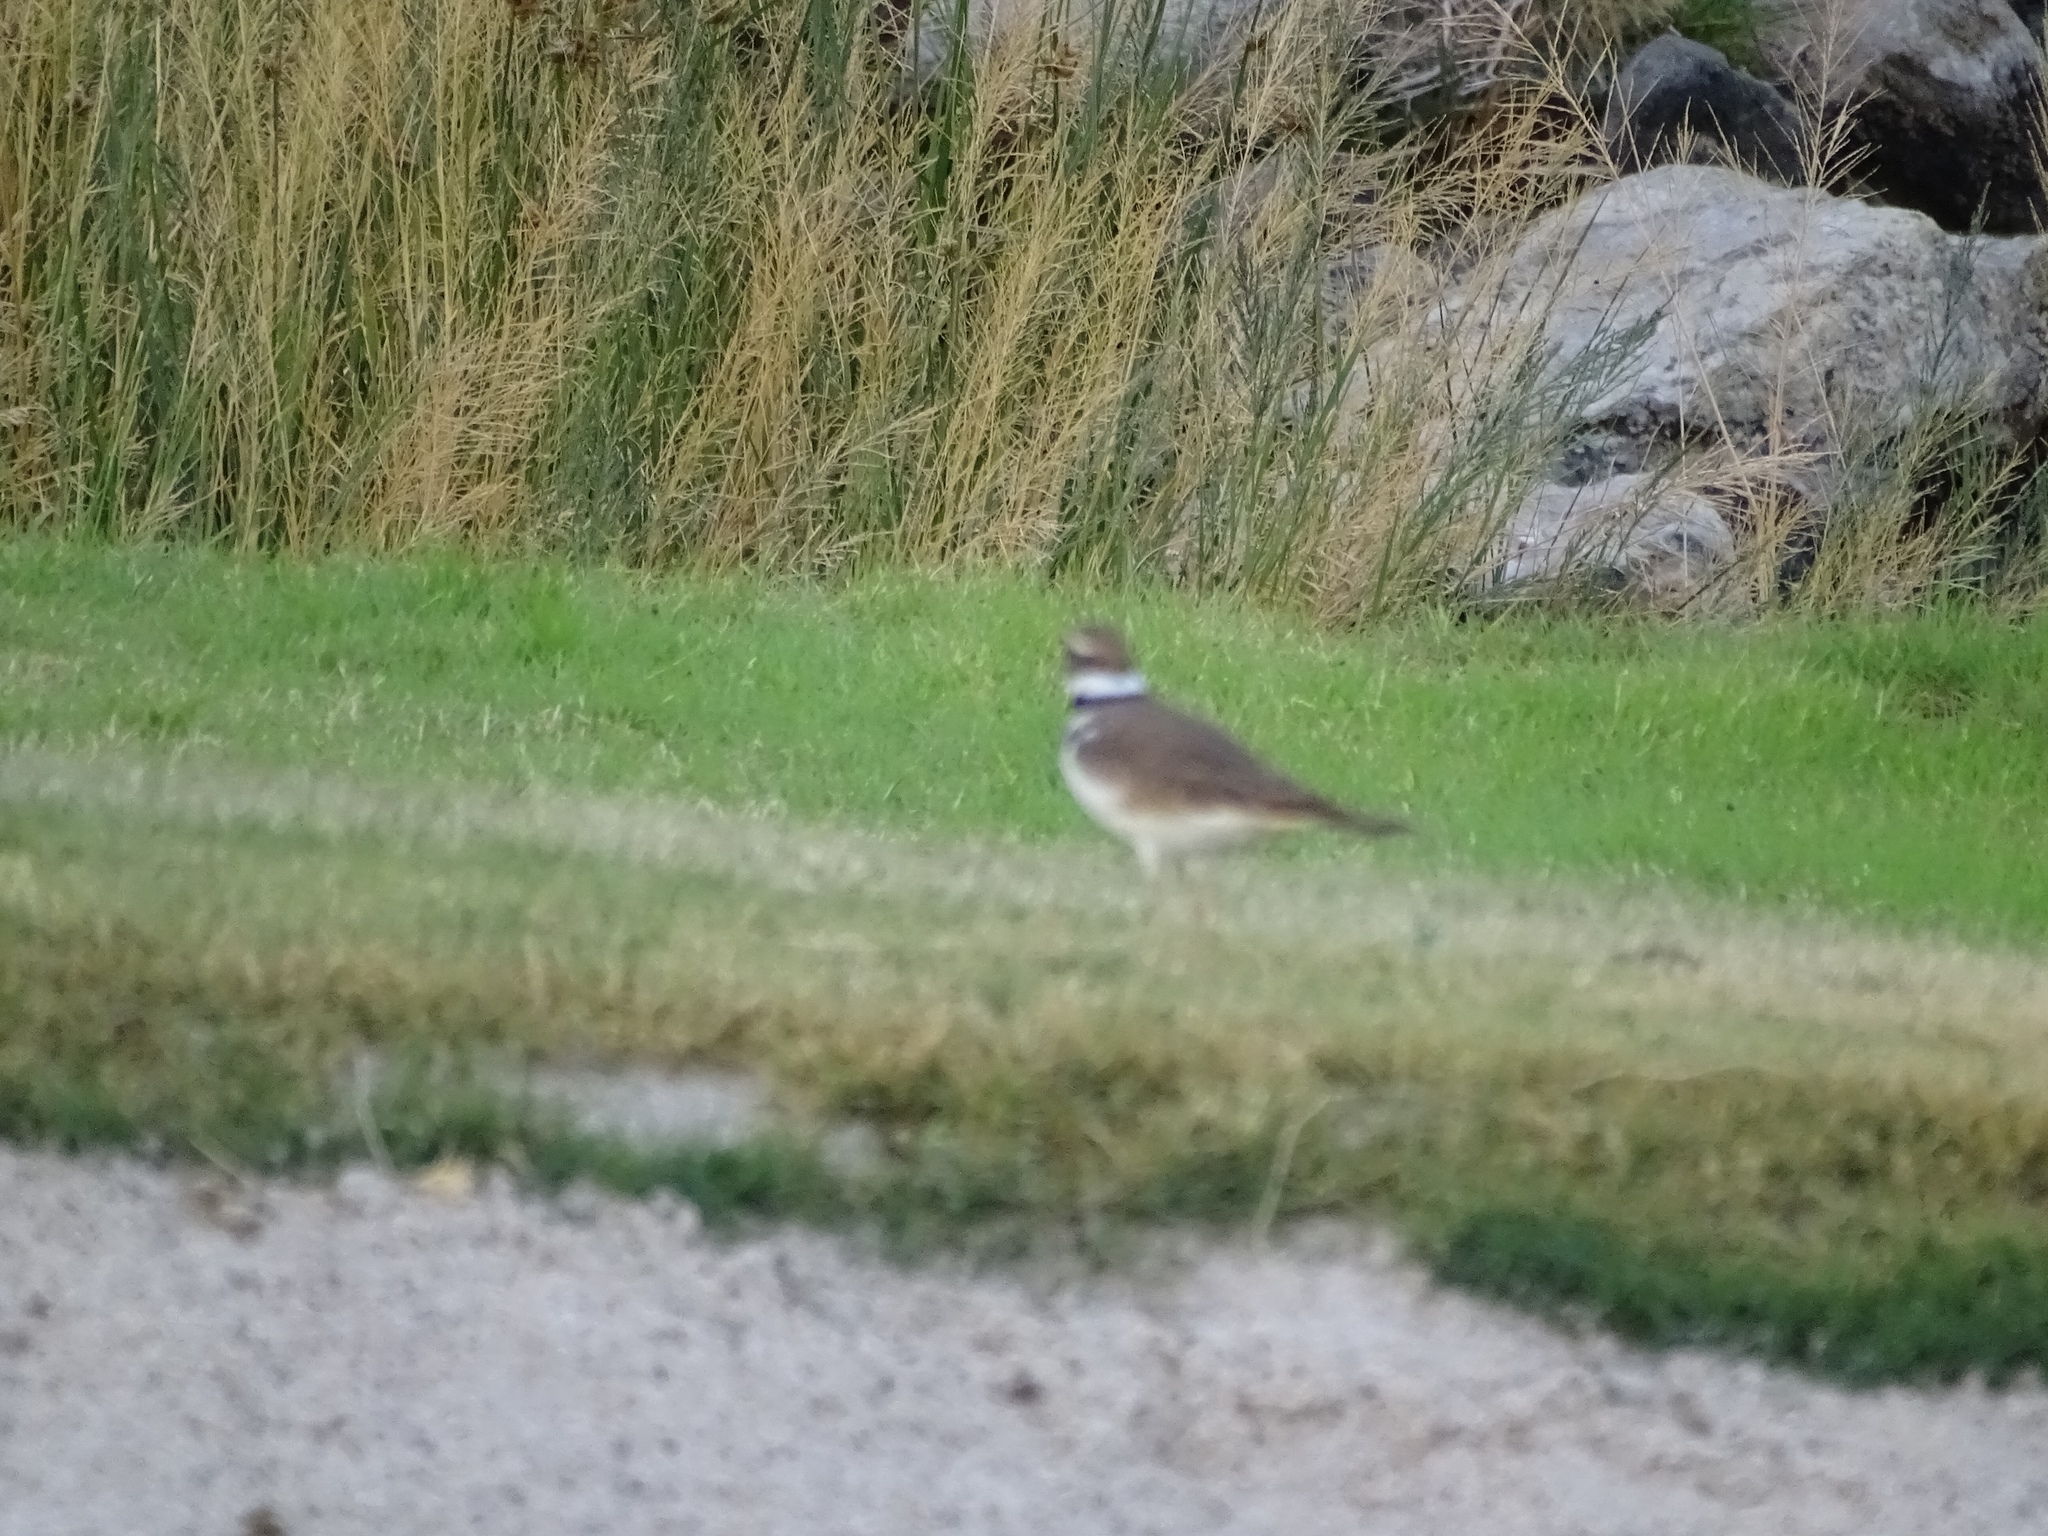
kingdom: Animalia
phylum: Chordata
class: Aves
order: Charadriiformes
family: Charadriidae
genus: Charadrius
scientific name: Charadrius vociferus
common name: Killdeer
